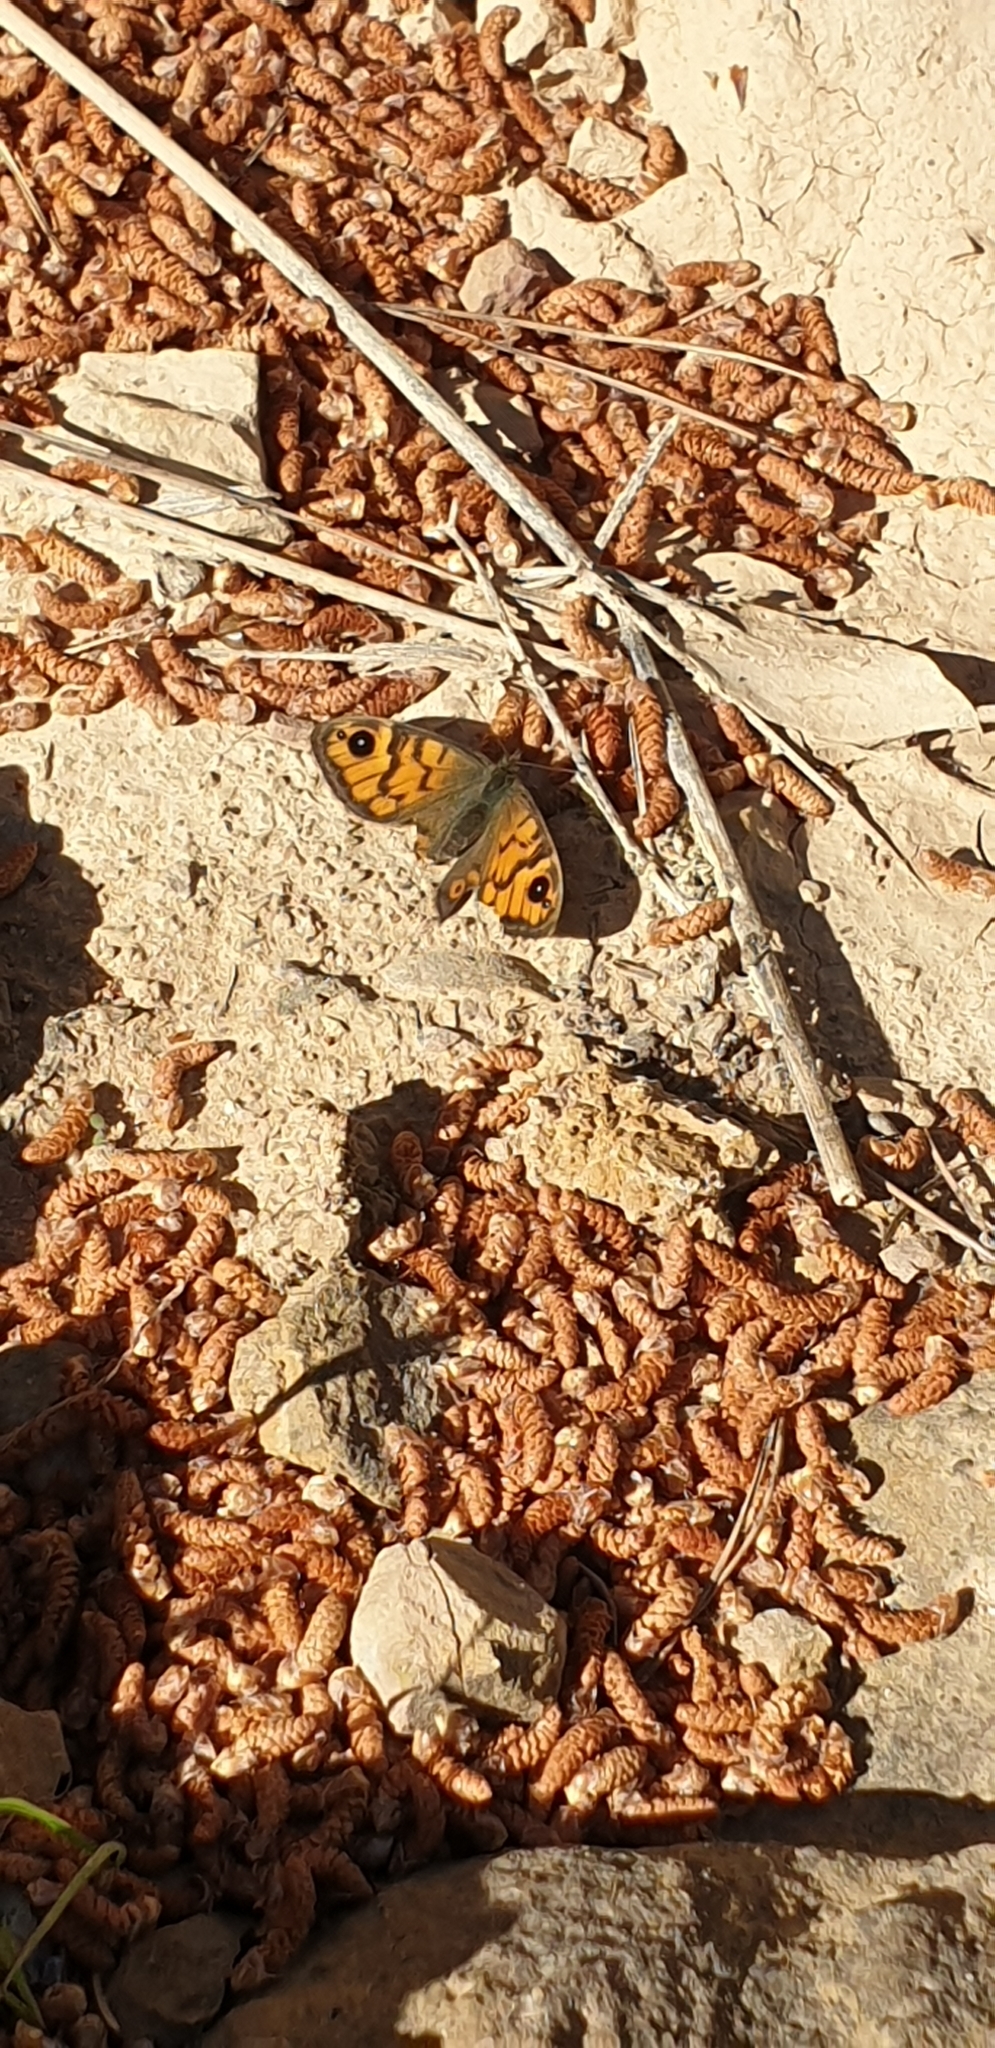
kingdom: Animalia
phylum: Arthropoda
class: Insecta
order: Lepidoptera
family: Nymphalidae
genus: Pararge
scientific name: Pararge Lasiommata megera
